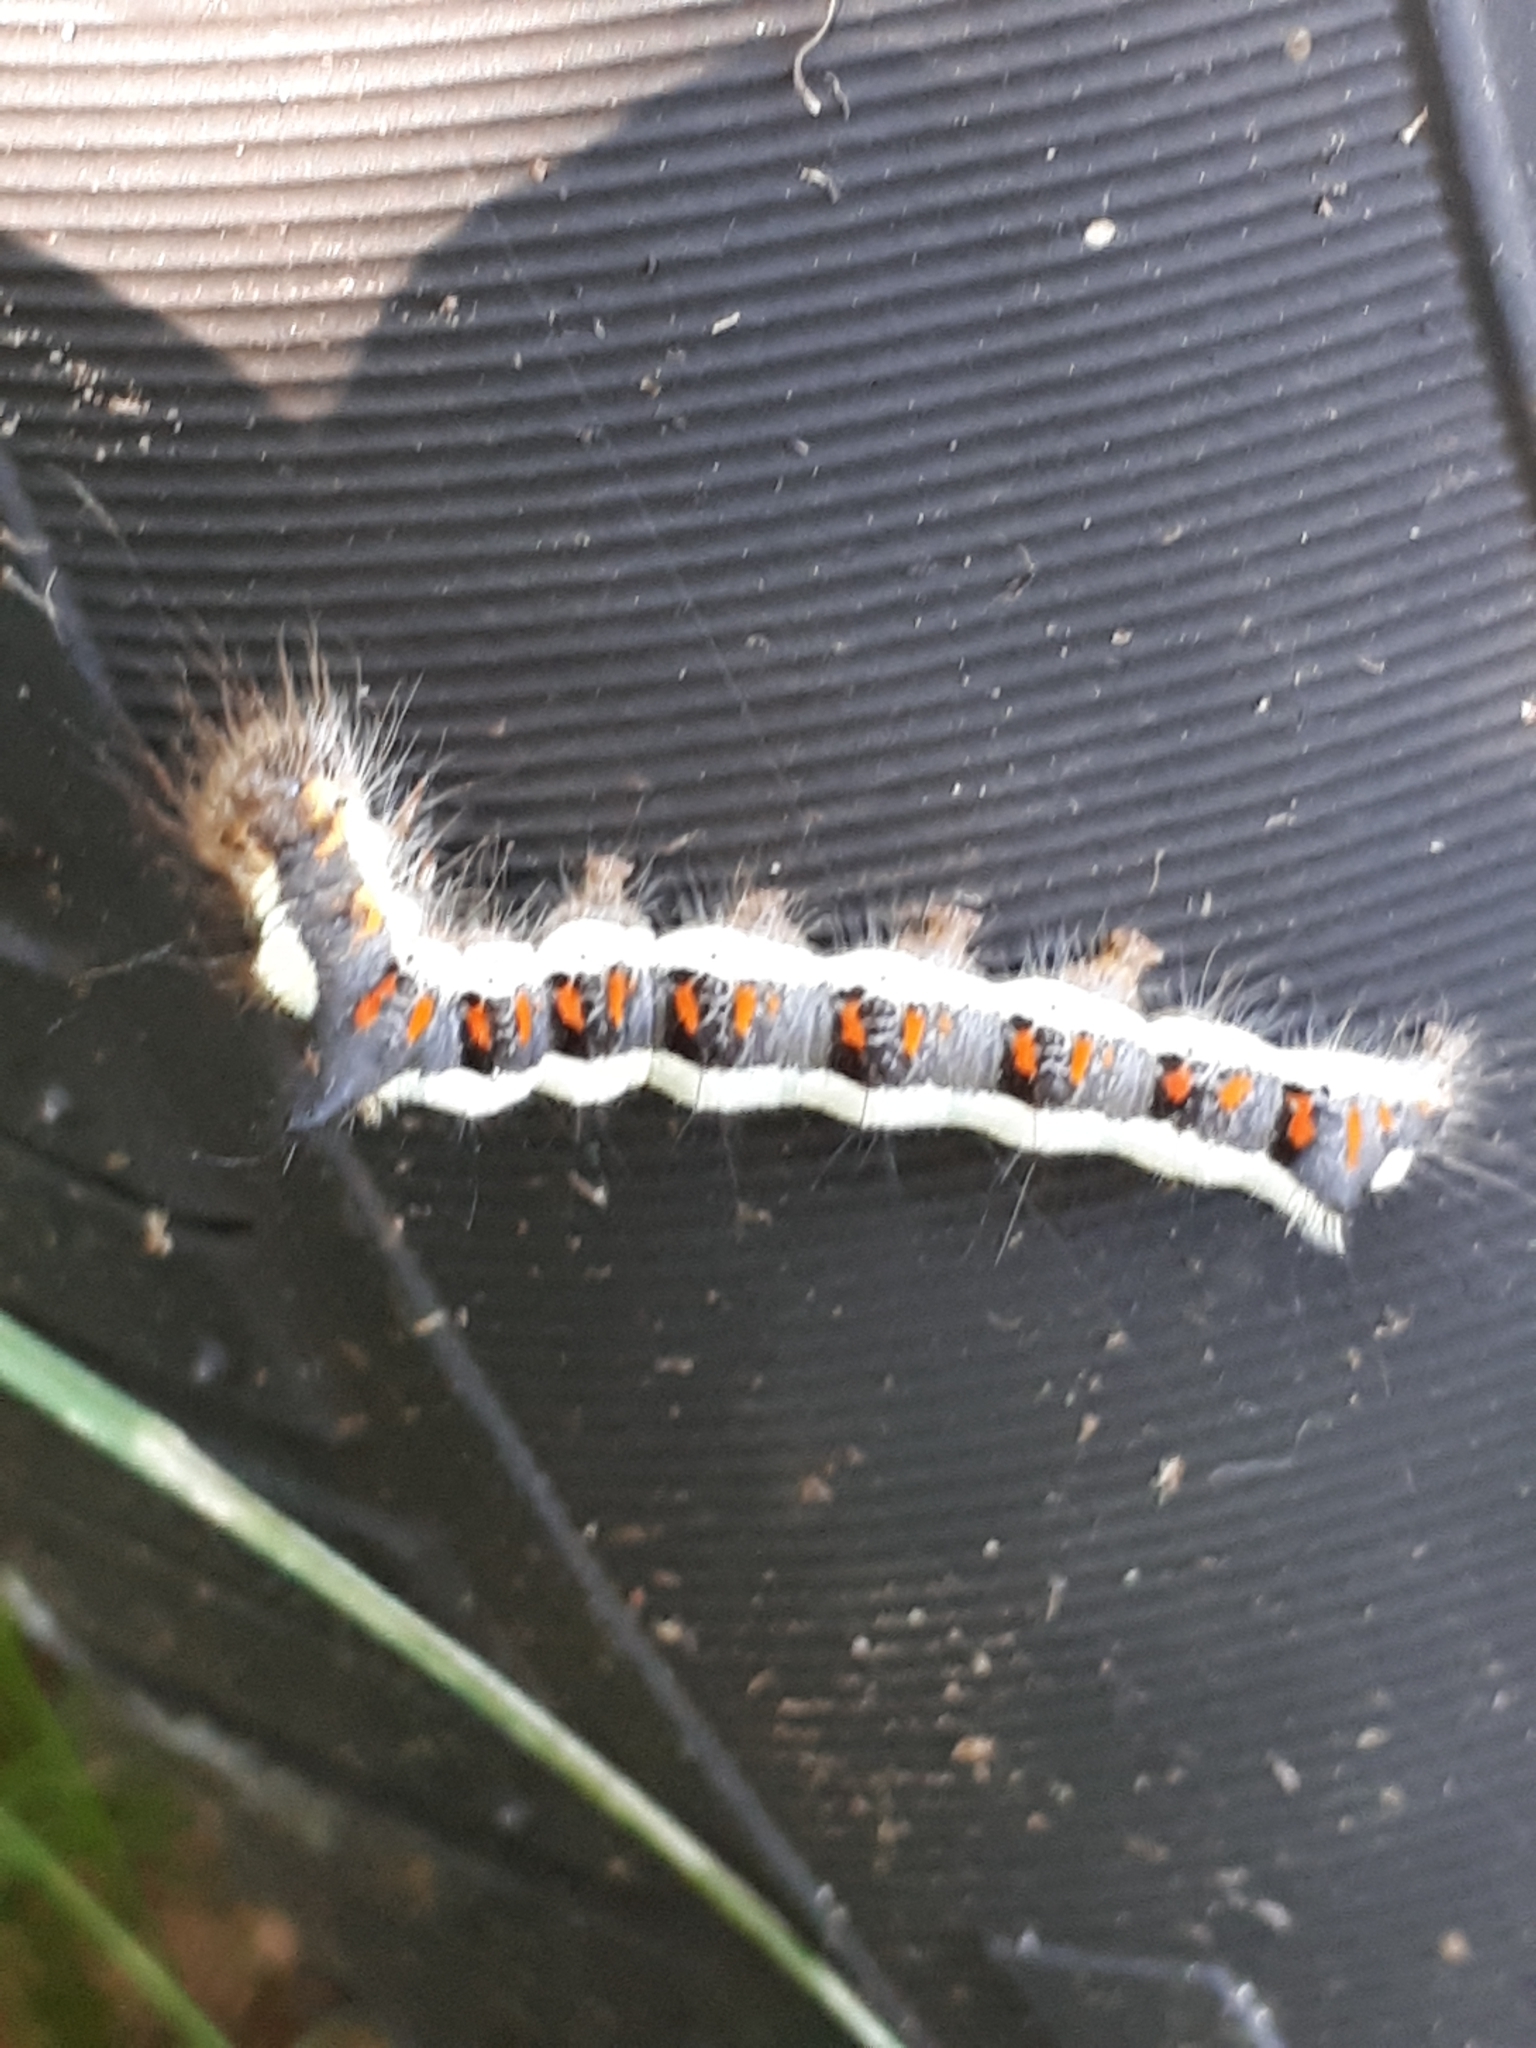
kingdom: Animalia
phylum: Arthropoda
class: Insecta
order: Lepidoptera
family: Noctuidae
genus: Acronicta
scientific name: Acronicta psi
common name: Grey dagger
